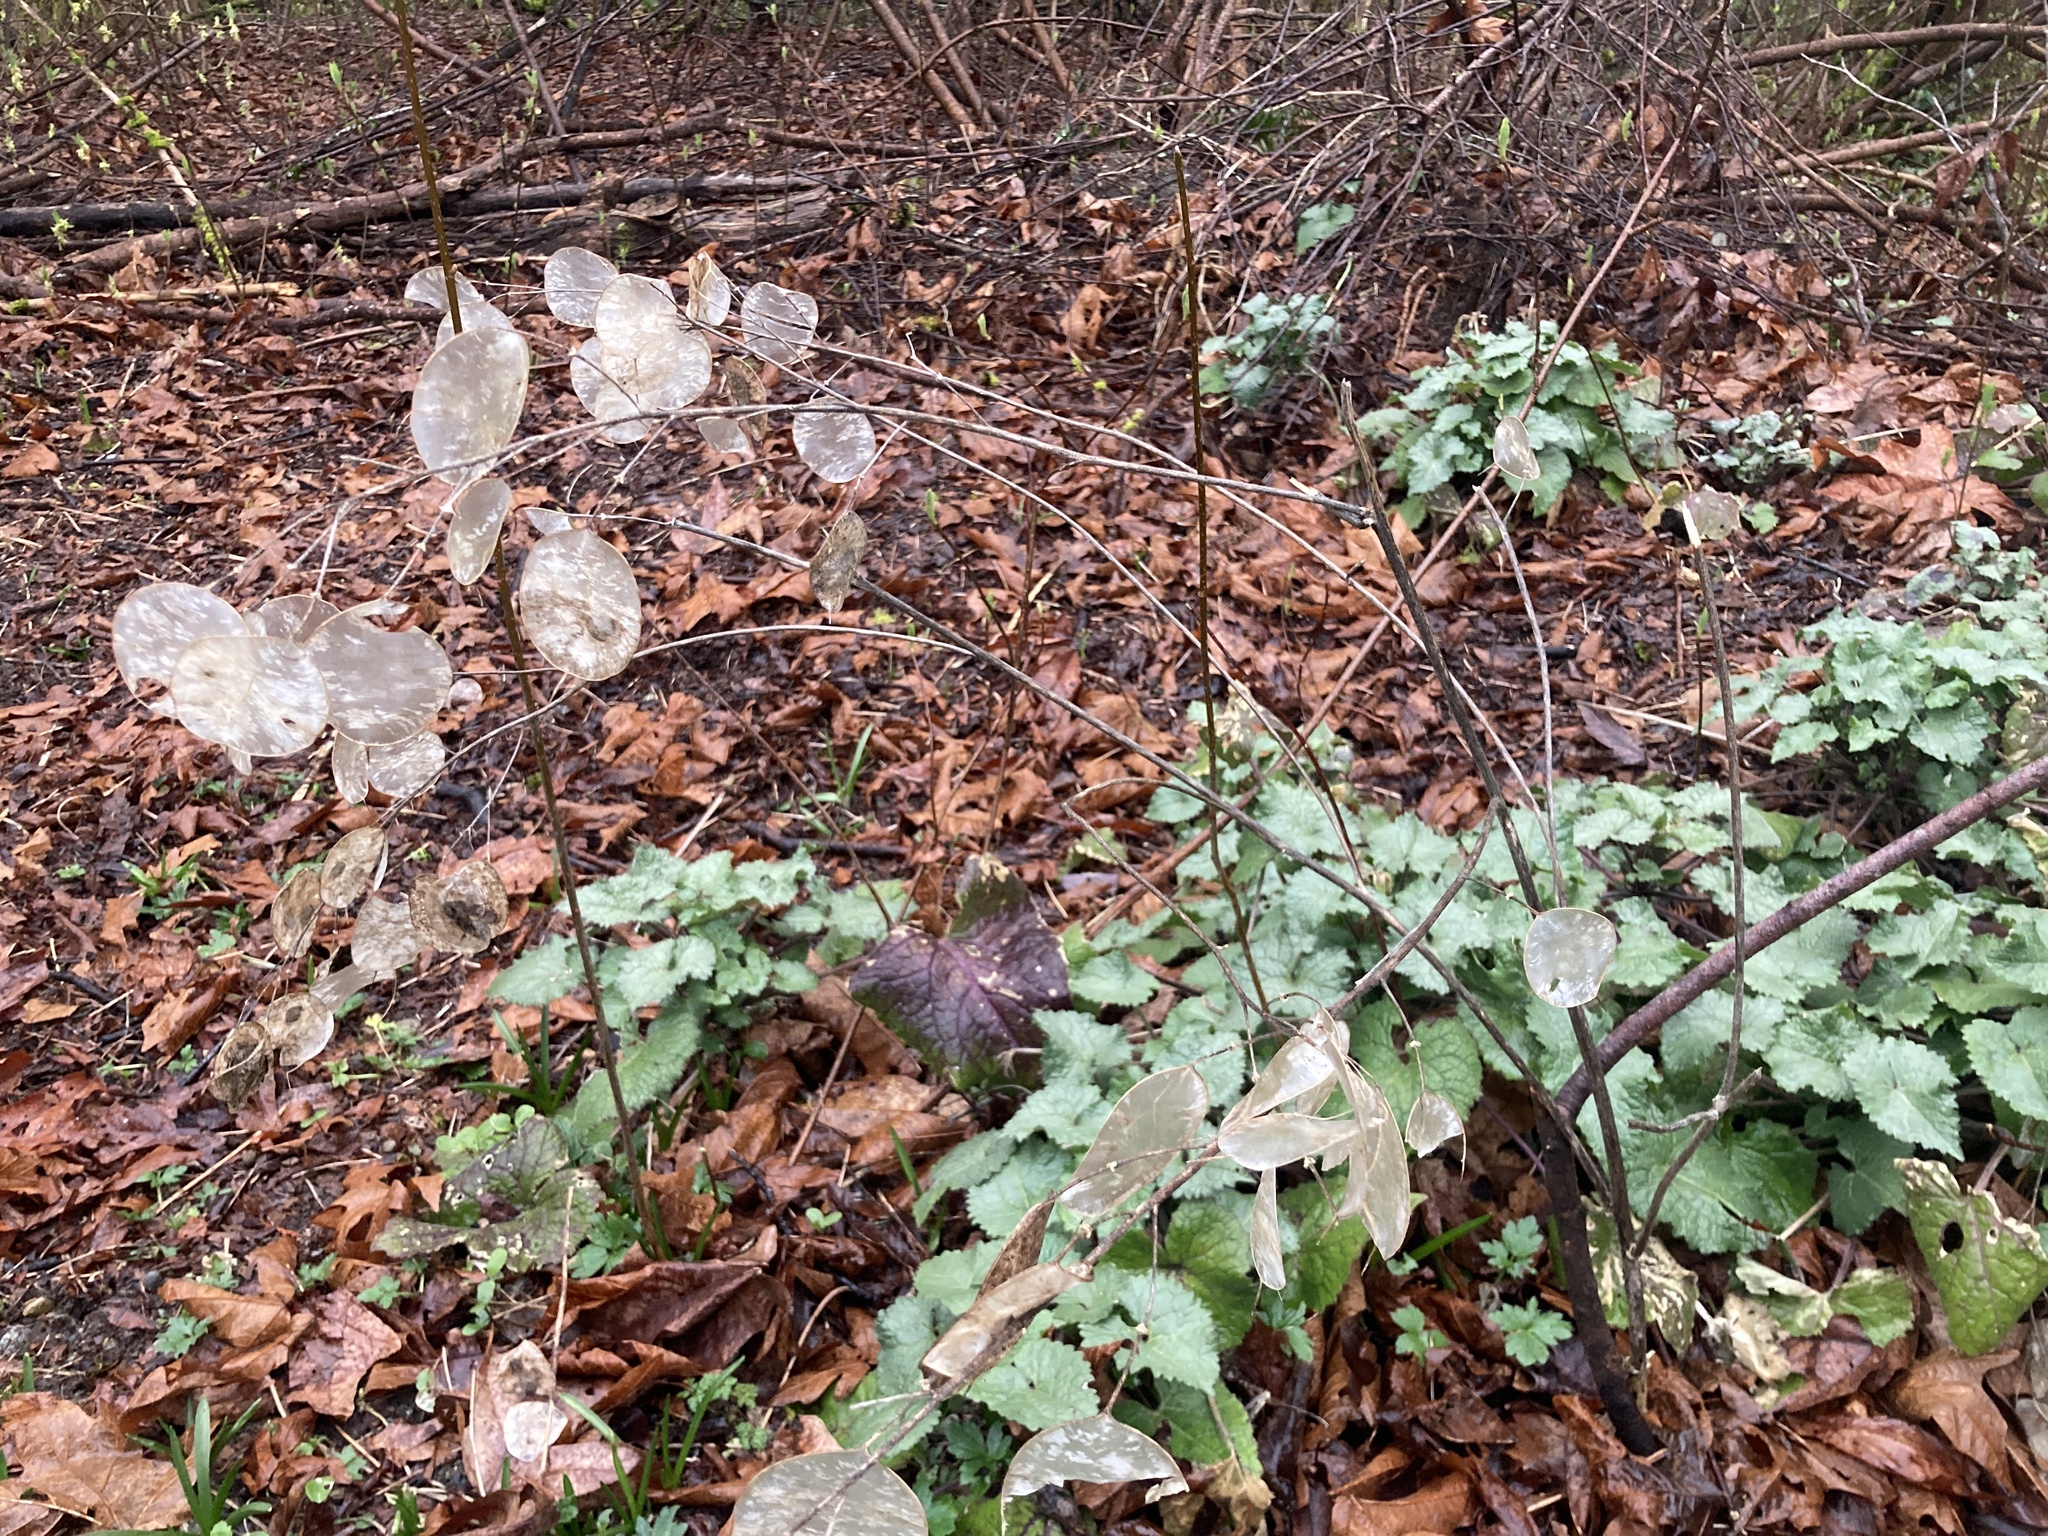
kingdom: Plantae
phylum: Tracheophyta
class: Magnoliopsida
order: Brassicales
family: Brassicaceae
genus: Lunaria
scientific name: Lunaria annua
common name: Honesty
